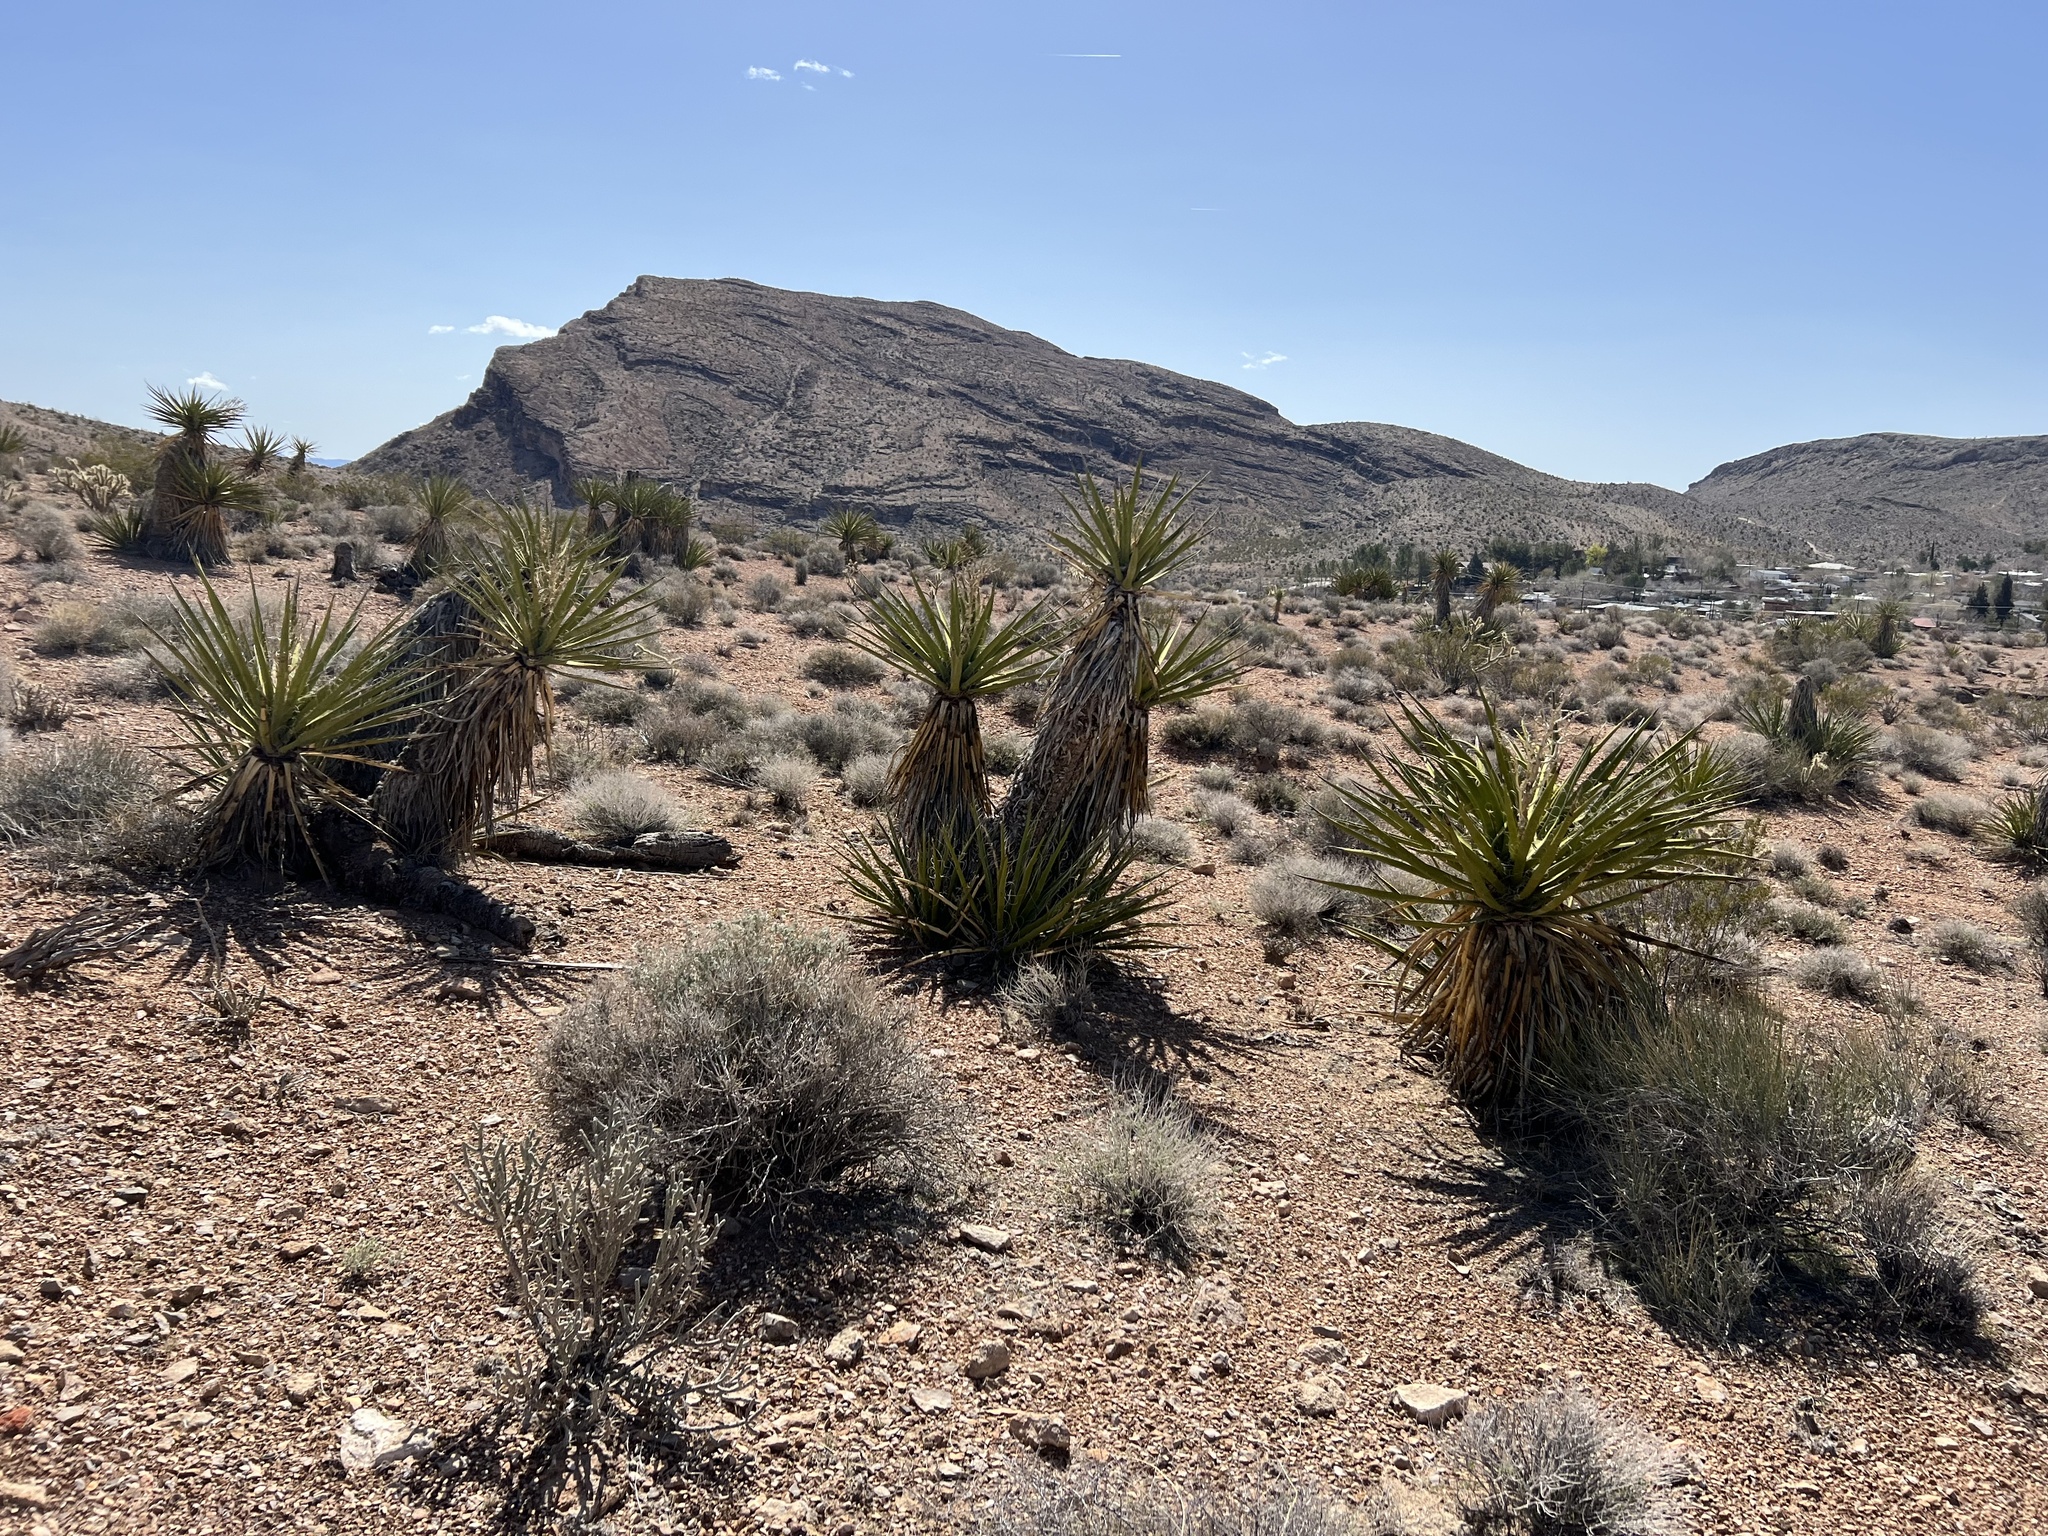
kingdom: Plantae
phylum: Tracheophyta
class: Liliopsida
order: Asparagales
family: Asparagaceae
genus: Yucca
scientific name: Yucca schidigera
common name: Mojave yucca
